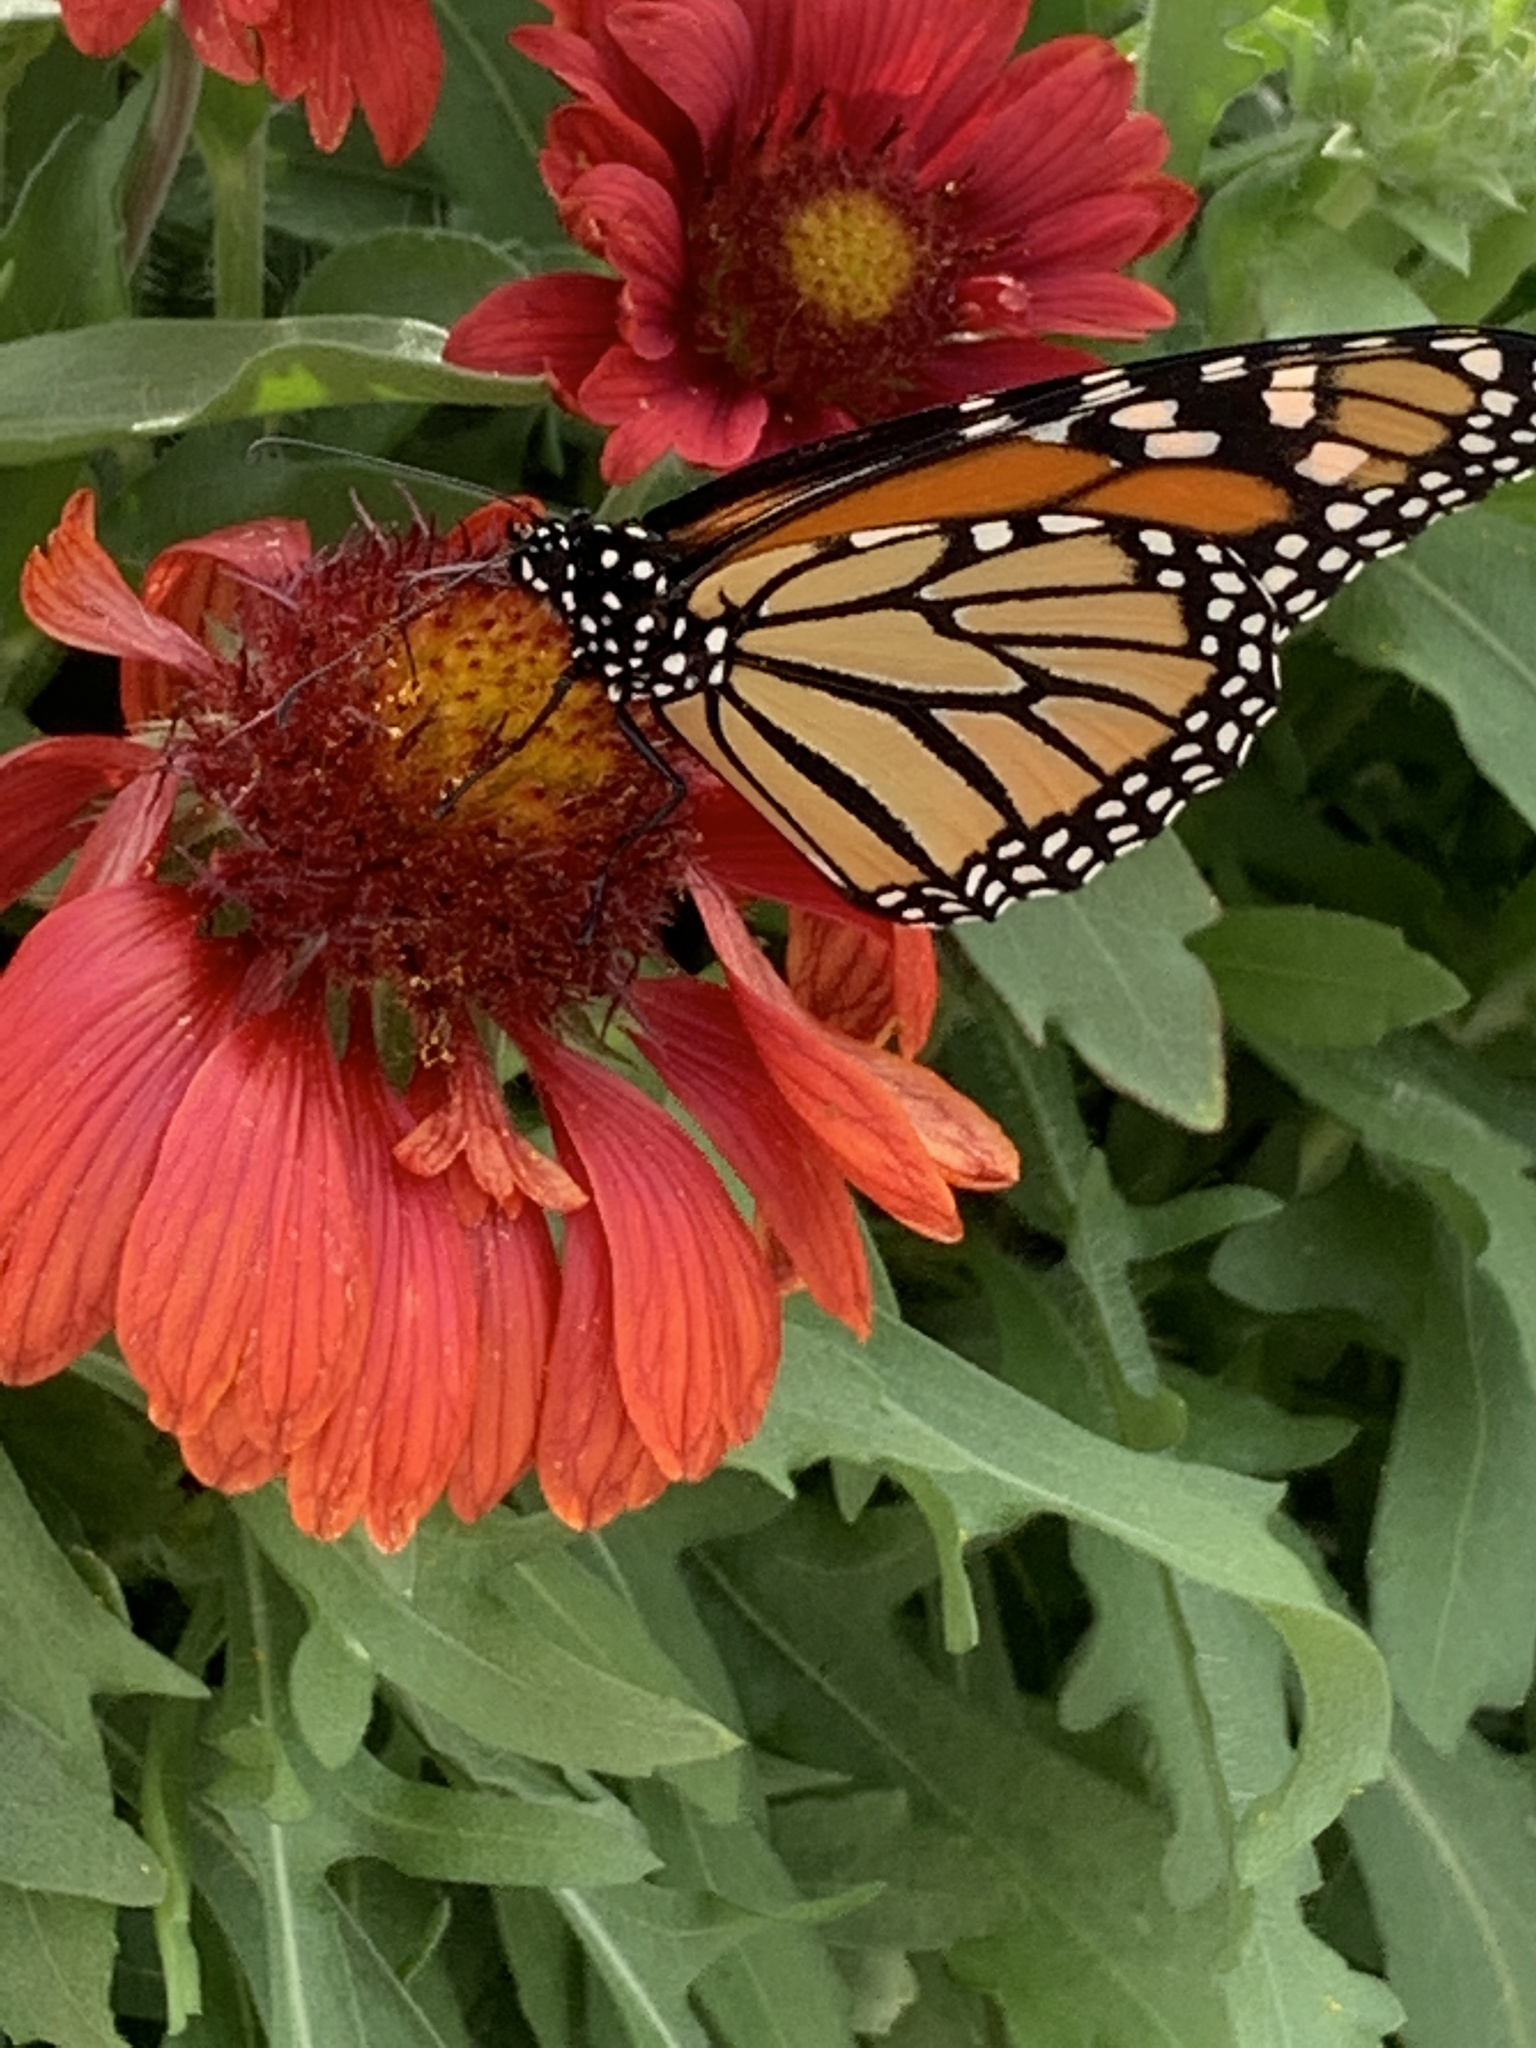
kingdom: Animalia
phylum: Arthropoda
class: Insecta
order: Lepidoptera
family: Nymphalidae
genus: Danaus
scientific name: Danaus plexippus
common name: Monarch
